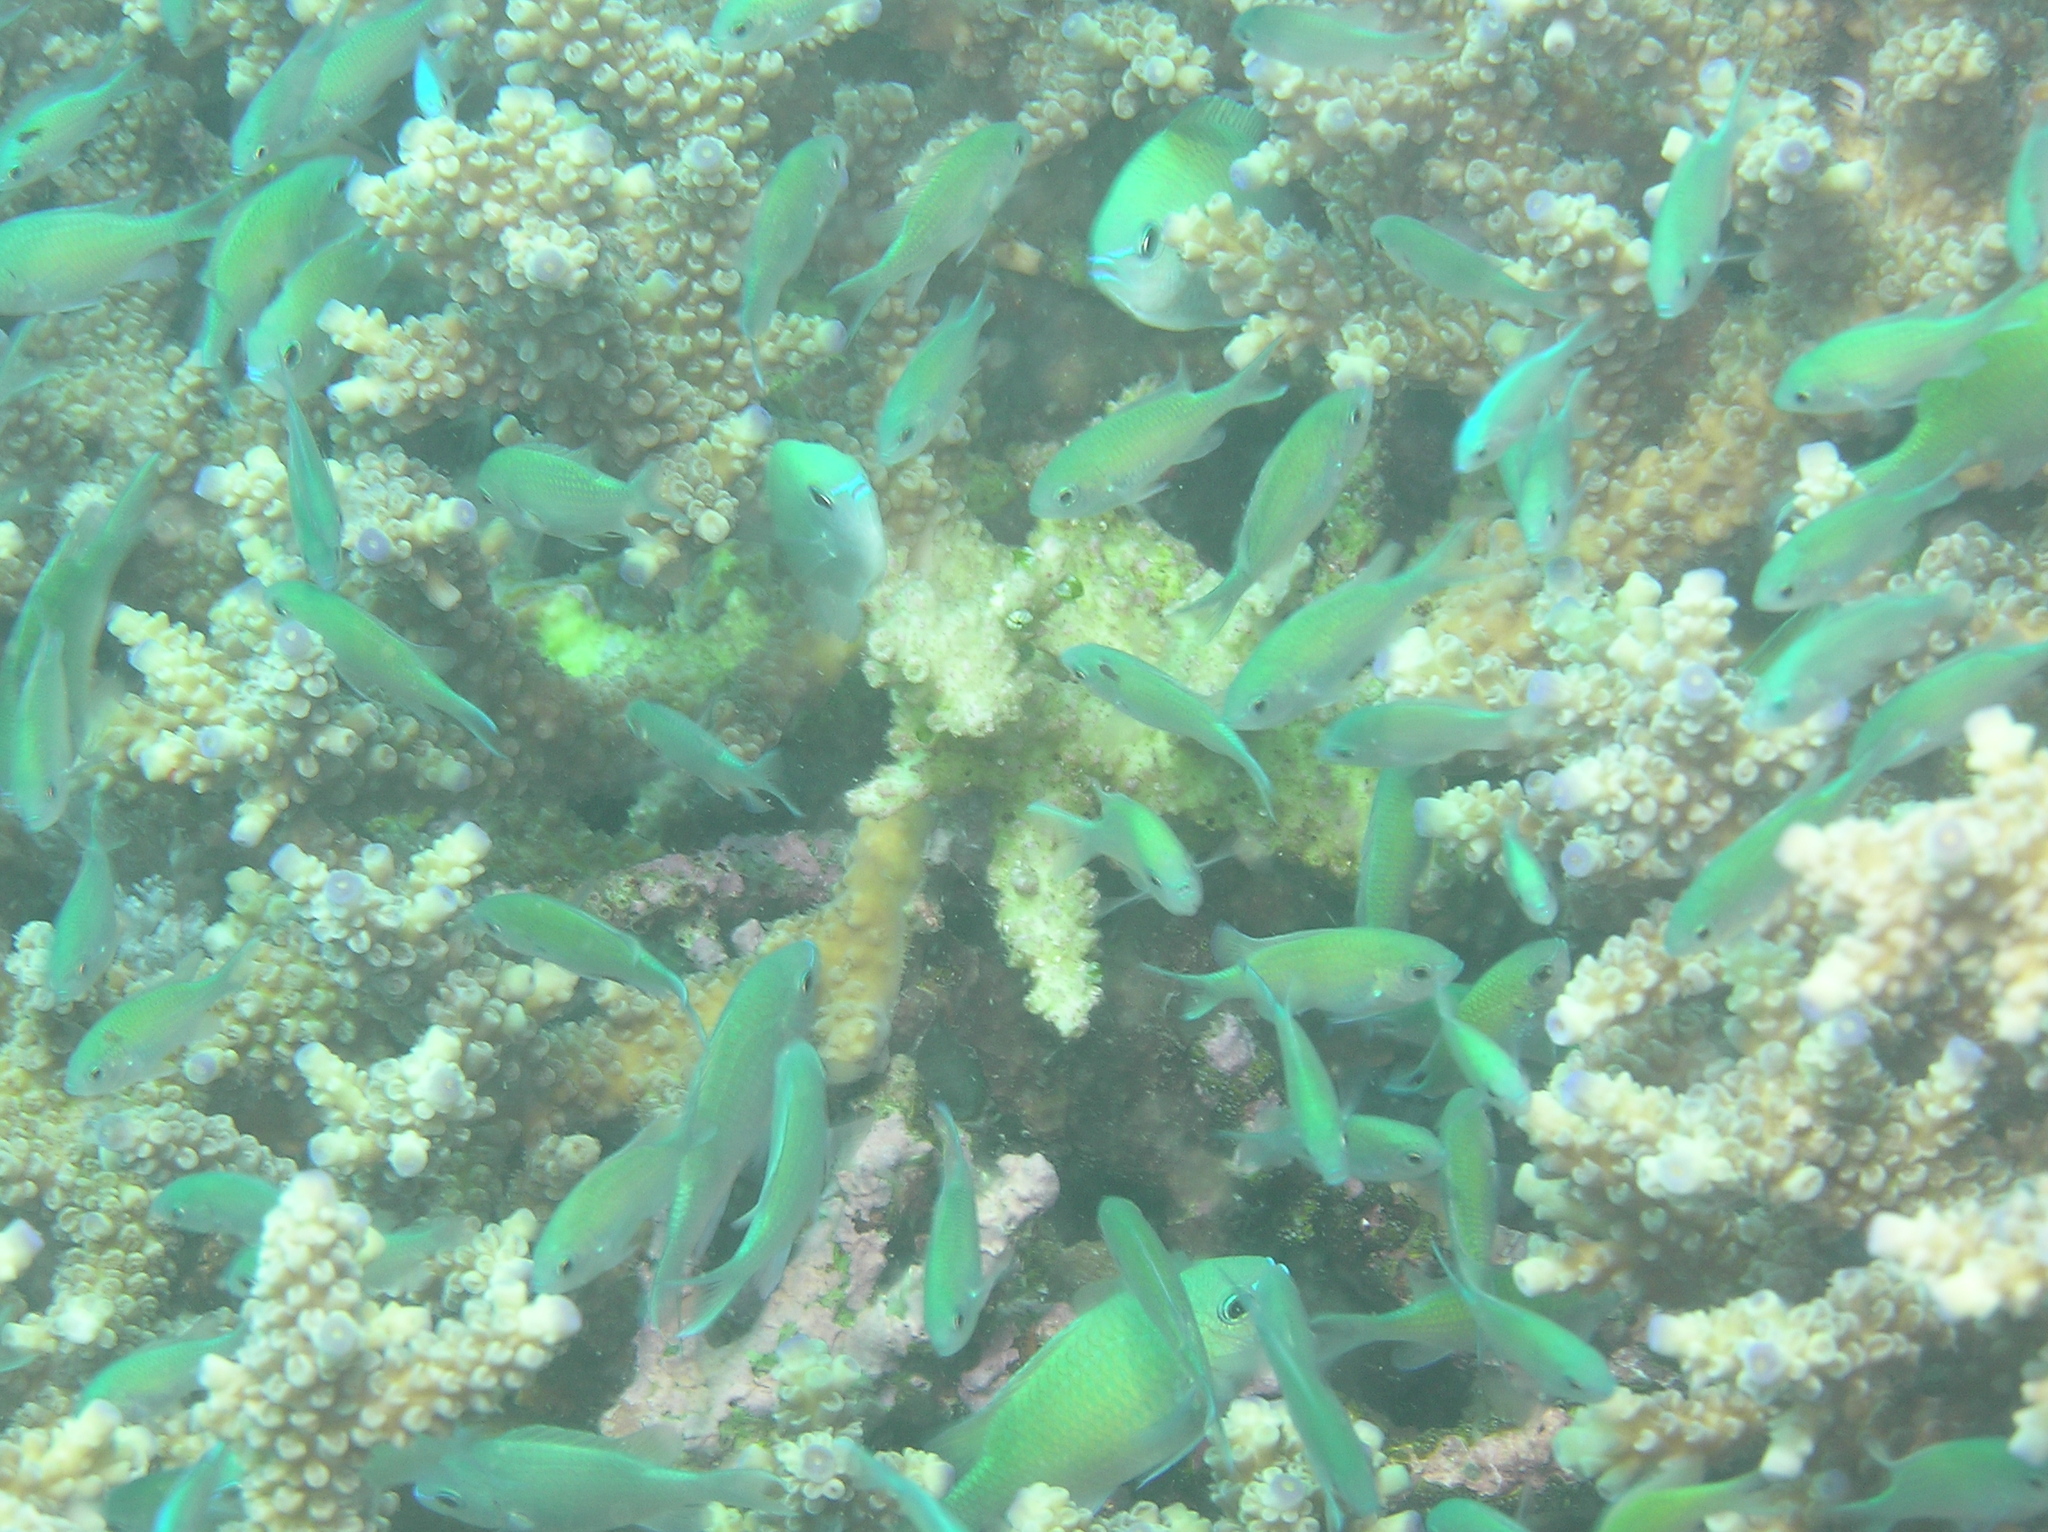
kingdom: Animalia
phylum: Chordata
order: Perciformes
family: Pomacentridae
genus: Chromis
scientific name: Chromis viridis
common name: Blue-green chromis
